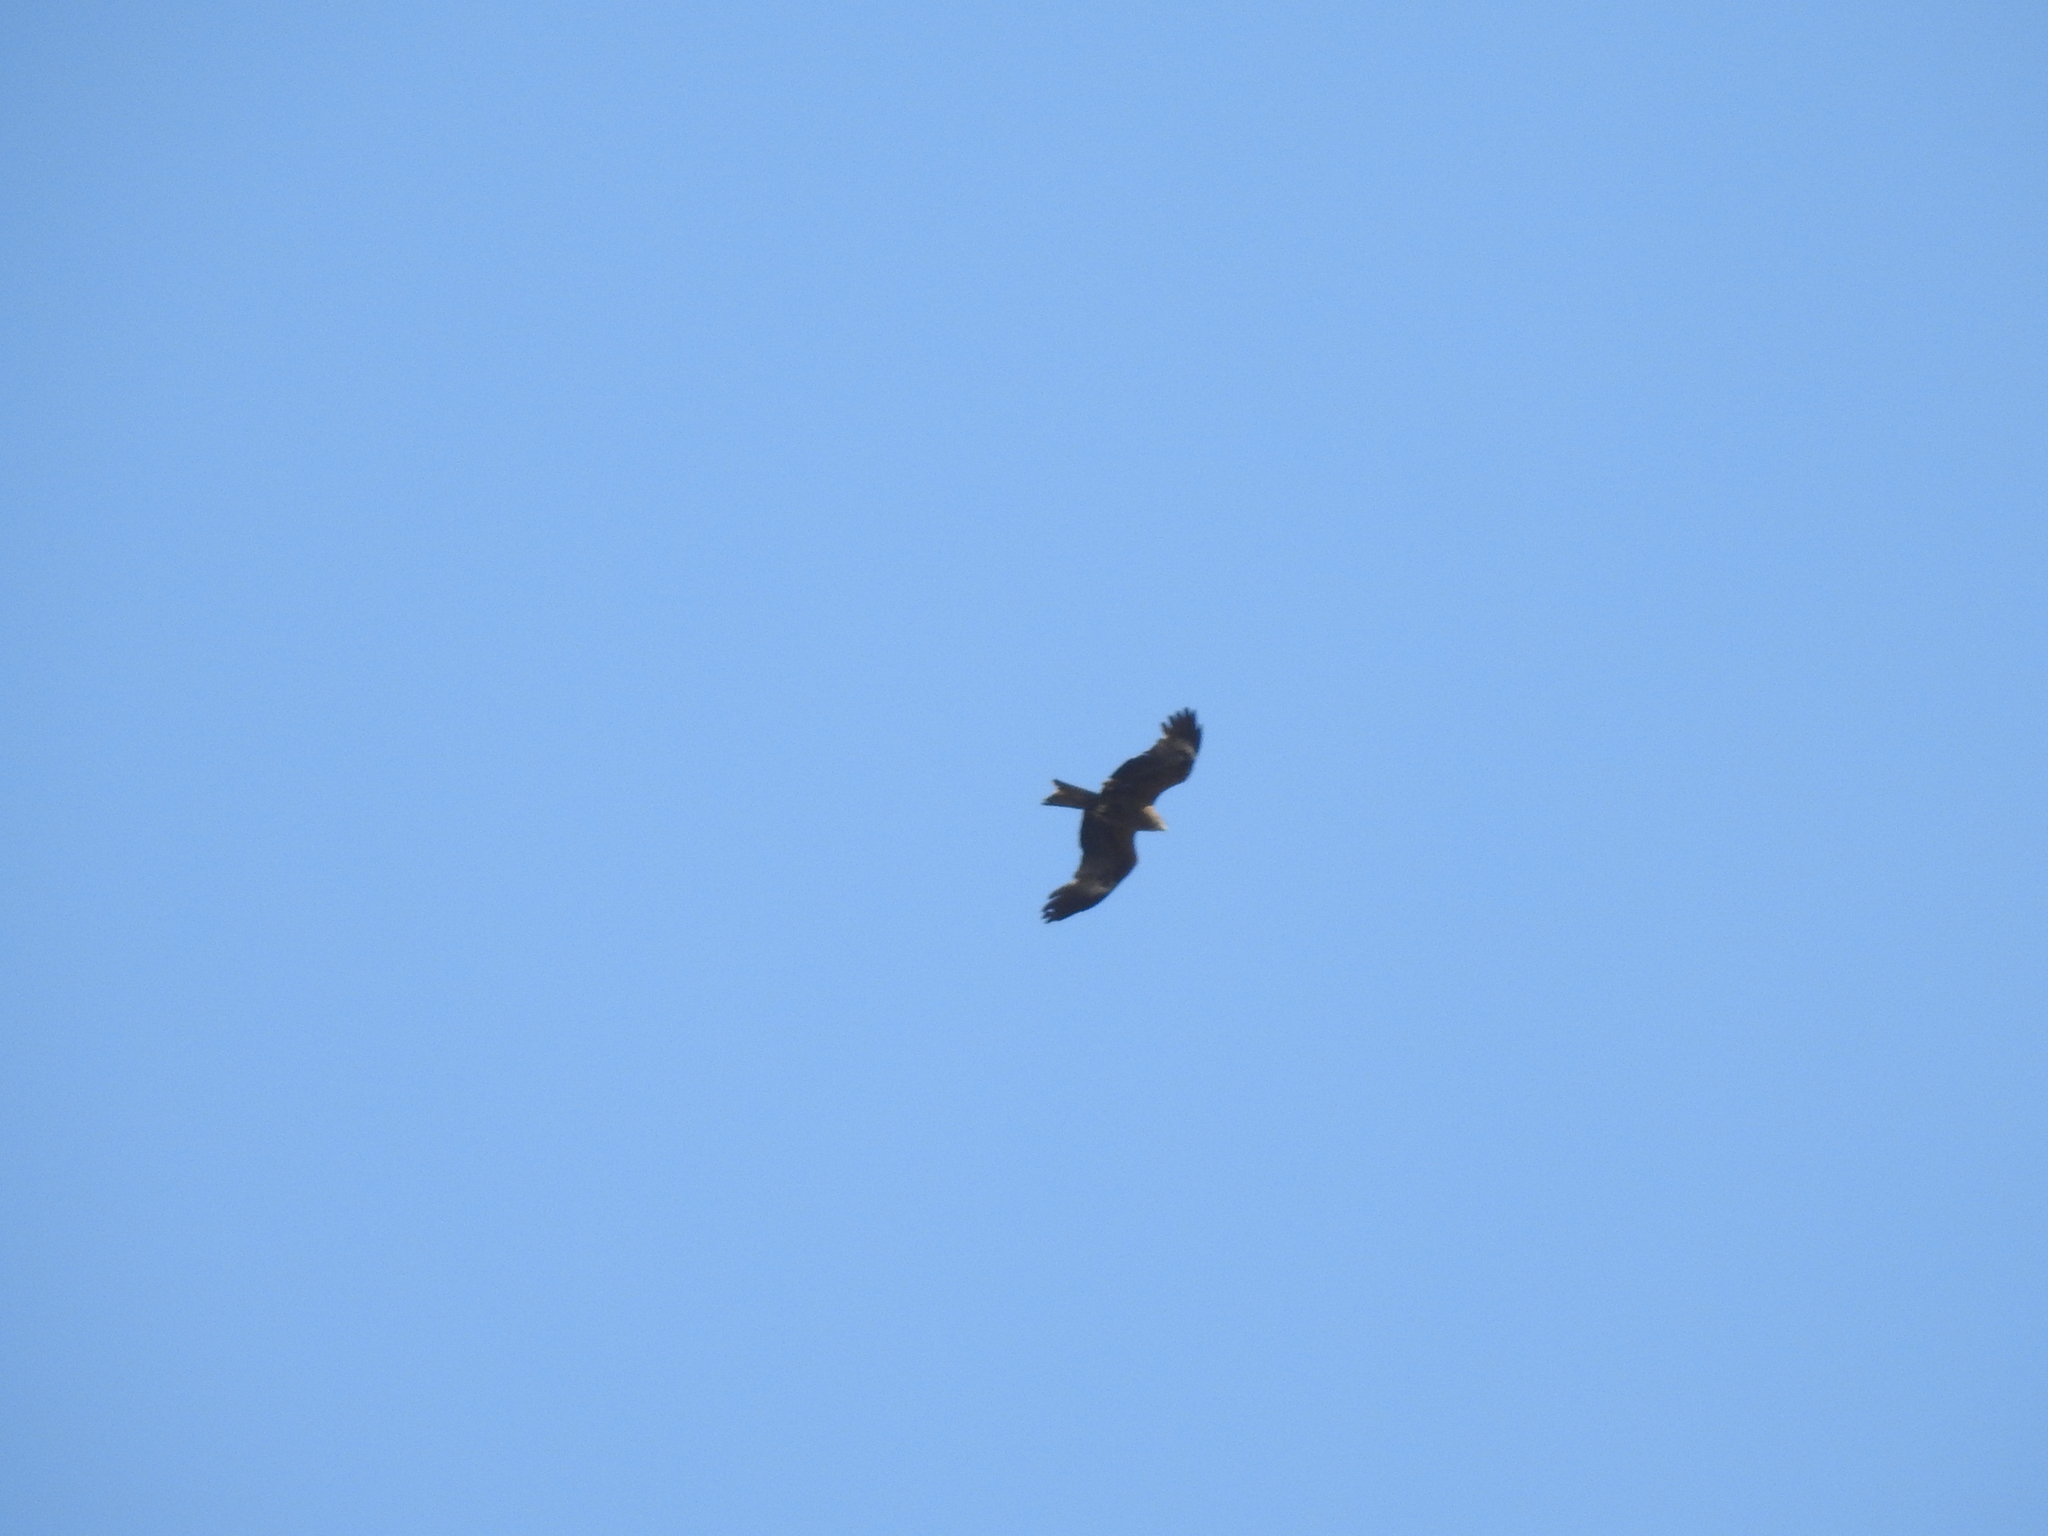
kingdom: Animalia
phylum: Chordata
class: Aves
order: Accipitriformes
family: Accipitridae
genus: Milvus
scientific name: Milvus migrans
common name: Black kite
